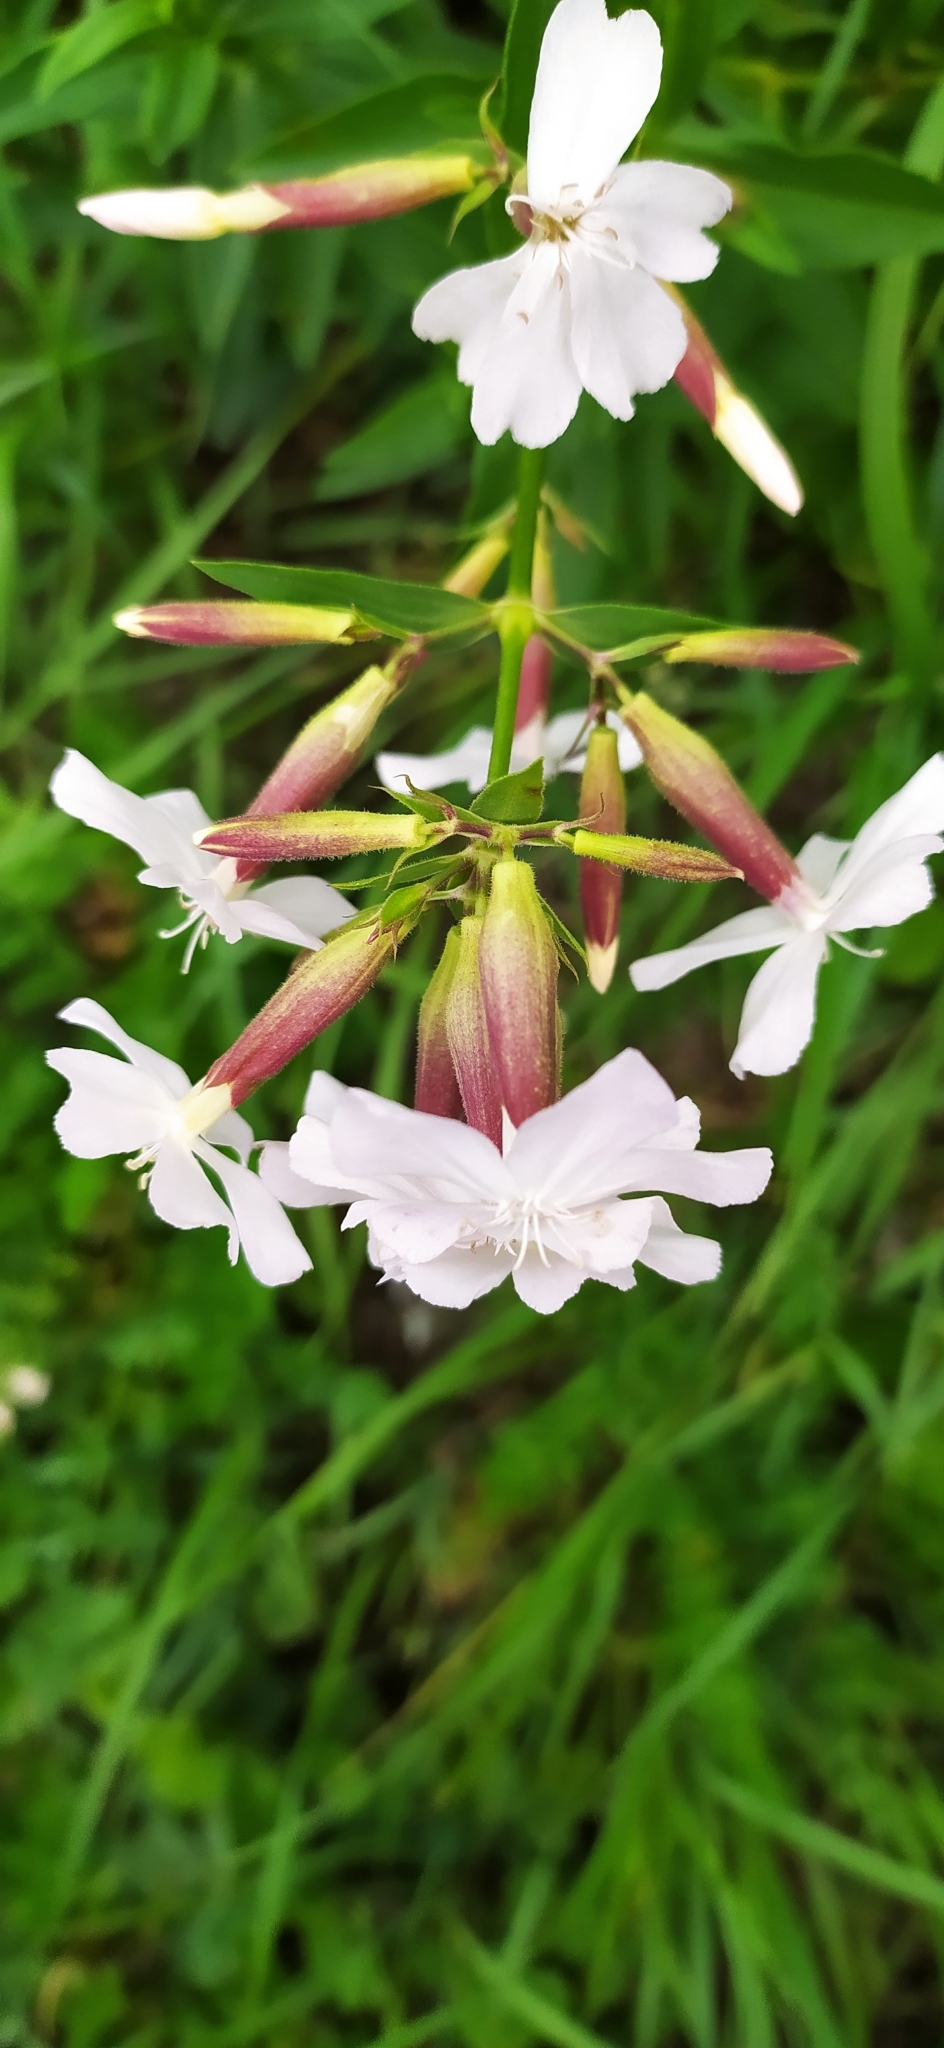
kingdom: Plantae
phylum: Tracheophyta
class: Magnoliopsida
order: Caryophyllales
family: Caryophyllaceae
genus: Saponaria
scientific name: Saponaria officinalis
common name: Soapwort
